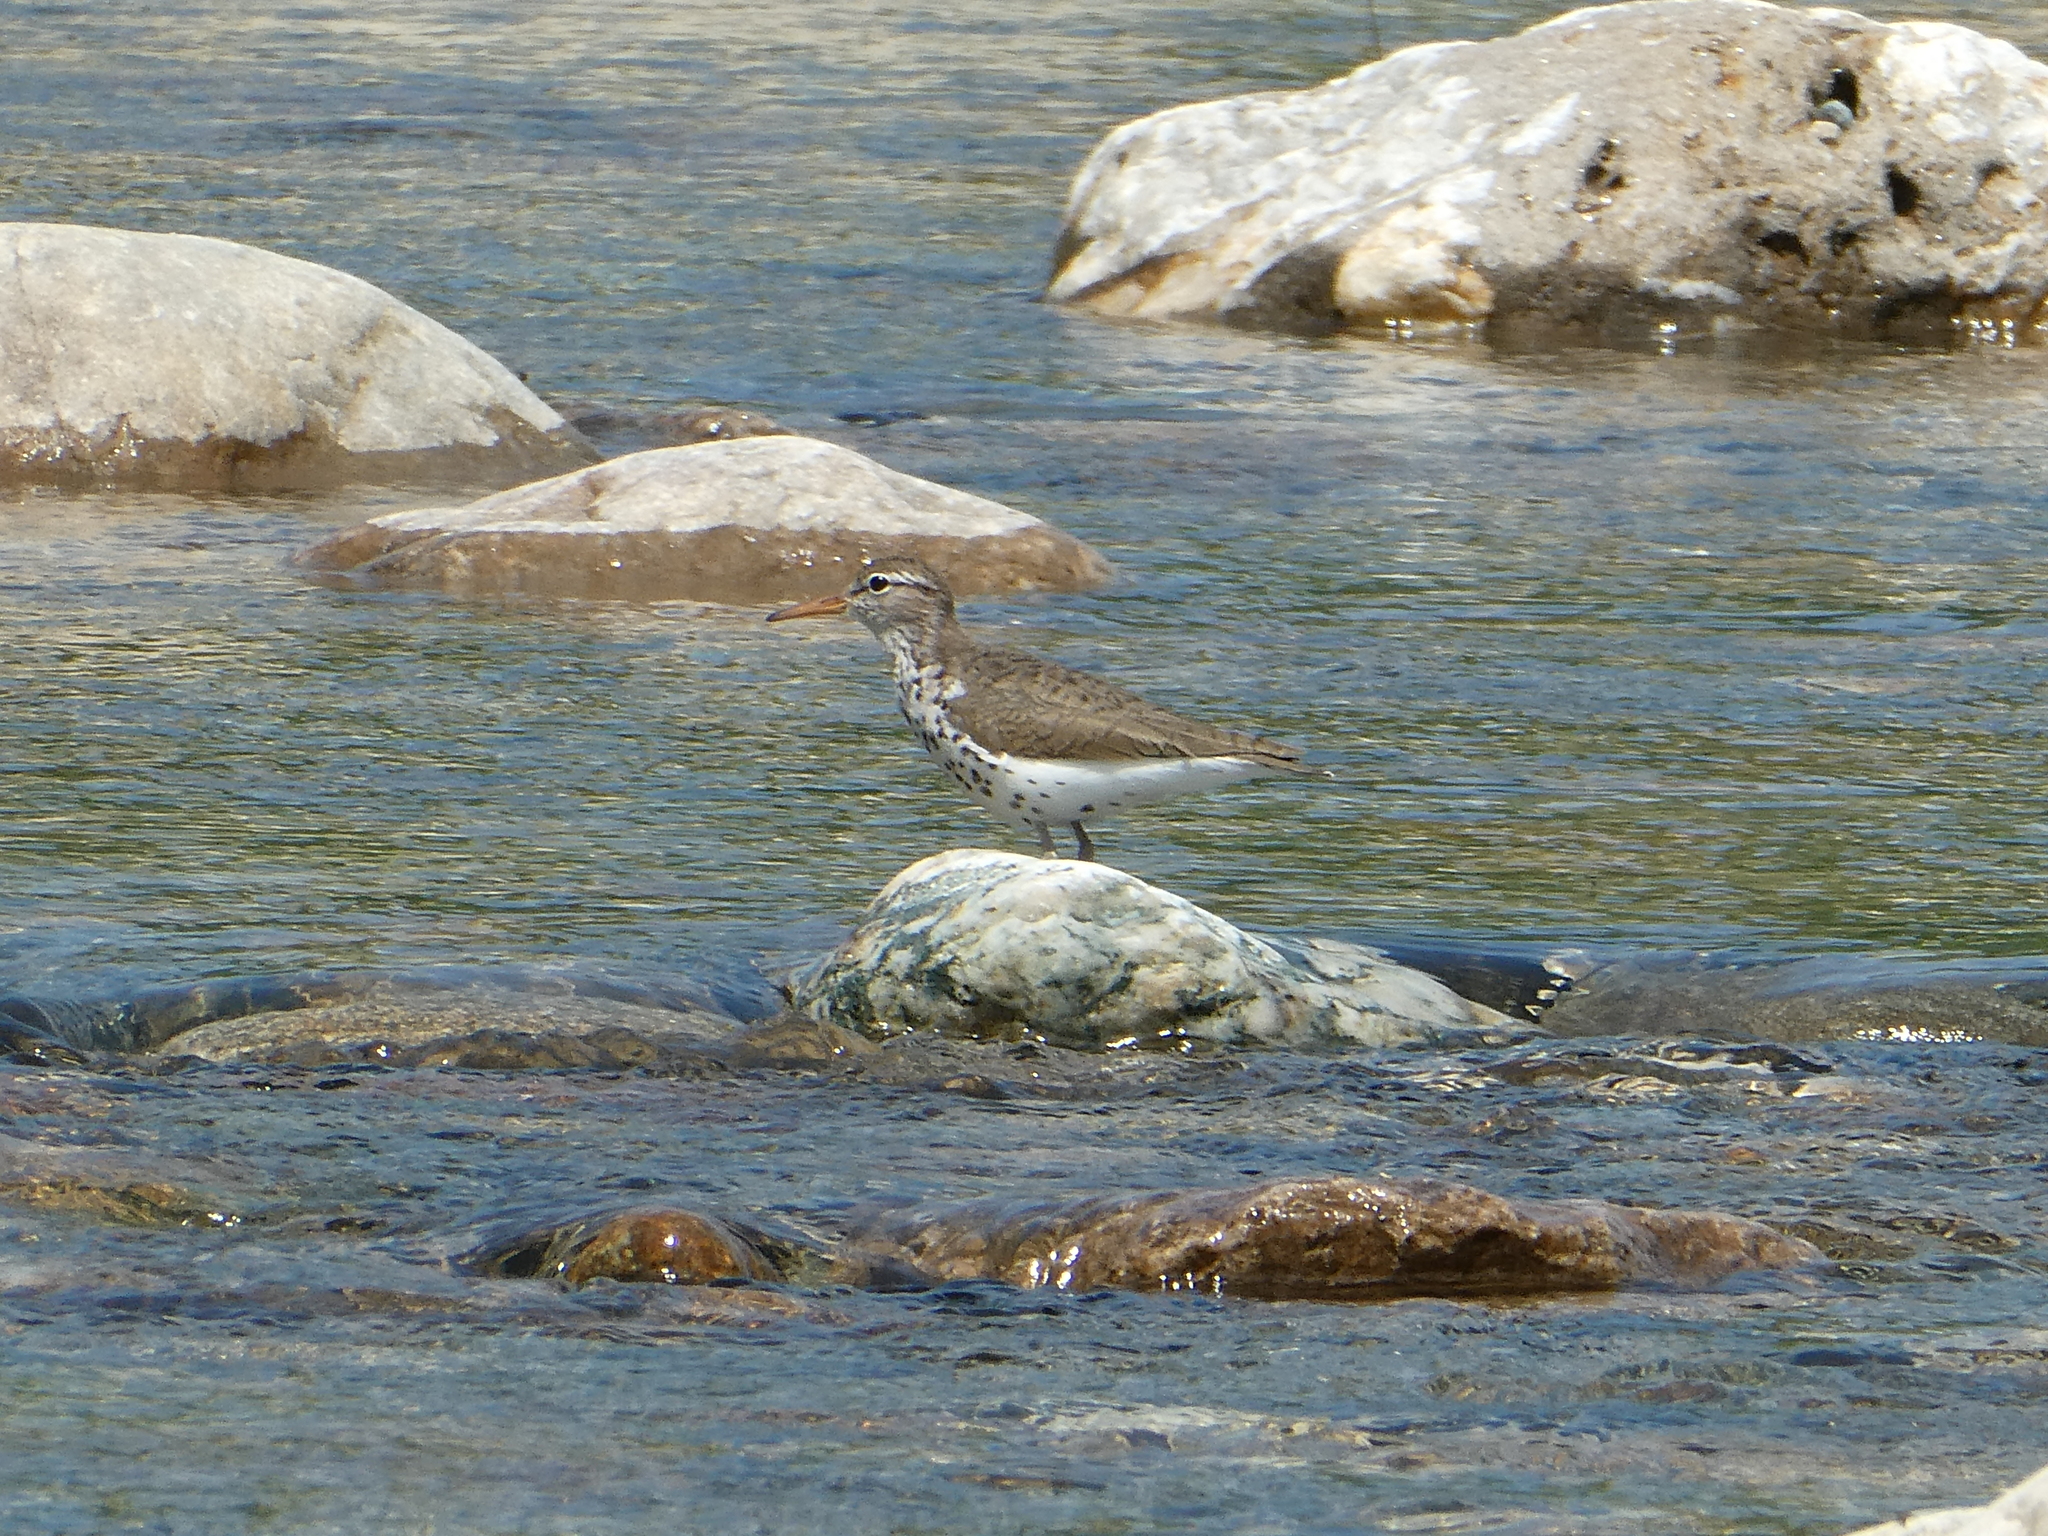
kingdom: Animalia
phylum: Chordata
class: Aves
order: Charadriiformes
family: Scolopacidae
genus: Actitis
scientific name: Actitis macularius
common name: Spotted sandpiper
